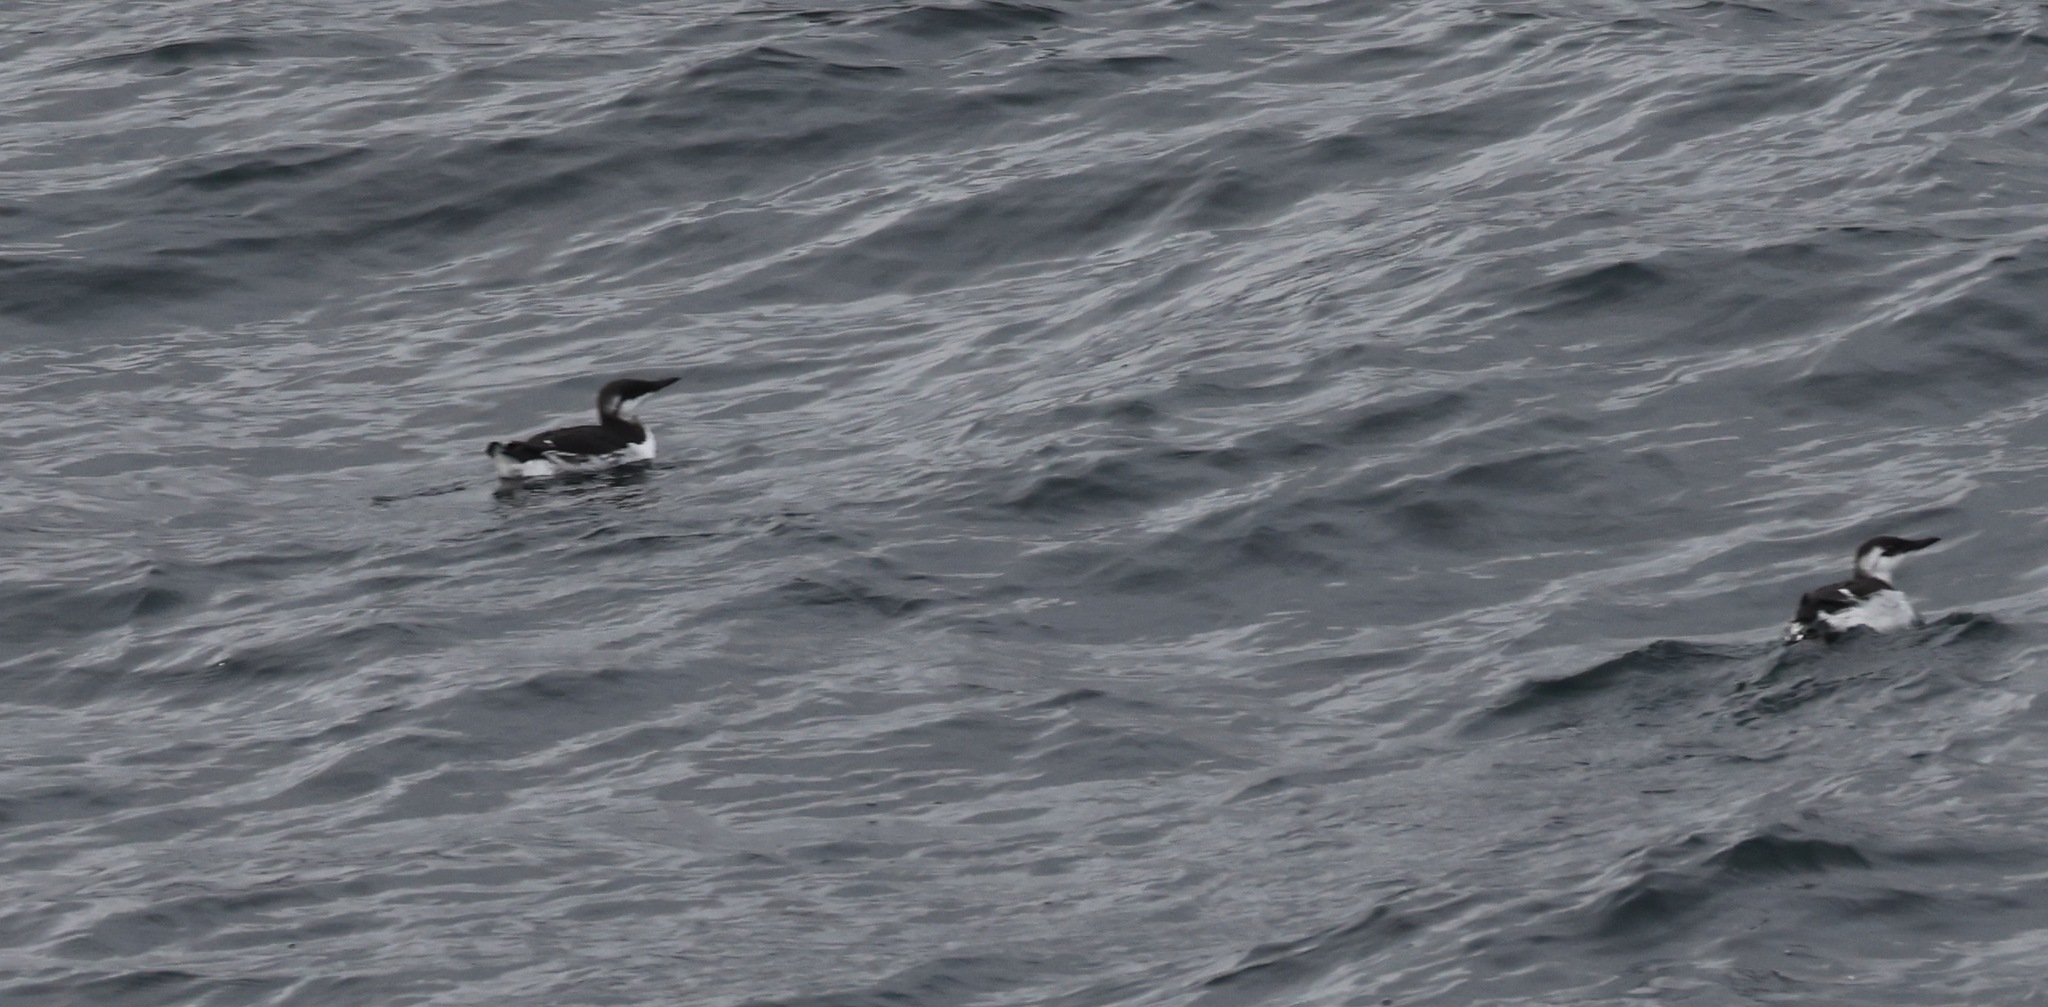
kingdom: Animalia
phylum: Chordata
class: Aves
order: Charadriiformes
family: Alcidae
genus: Uria
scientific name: Uria aalge
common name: Common murre
